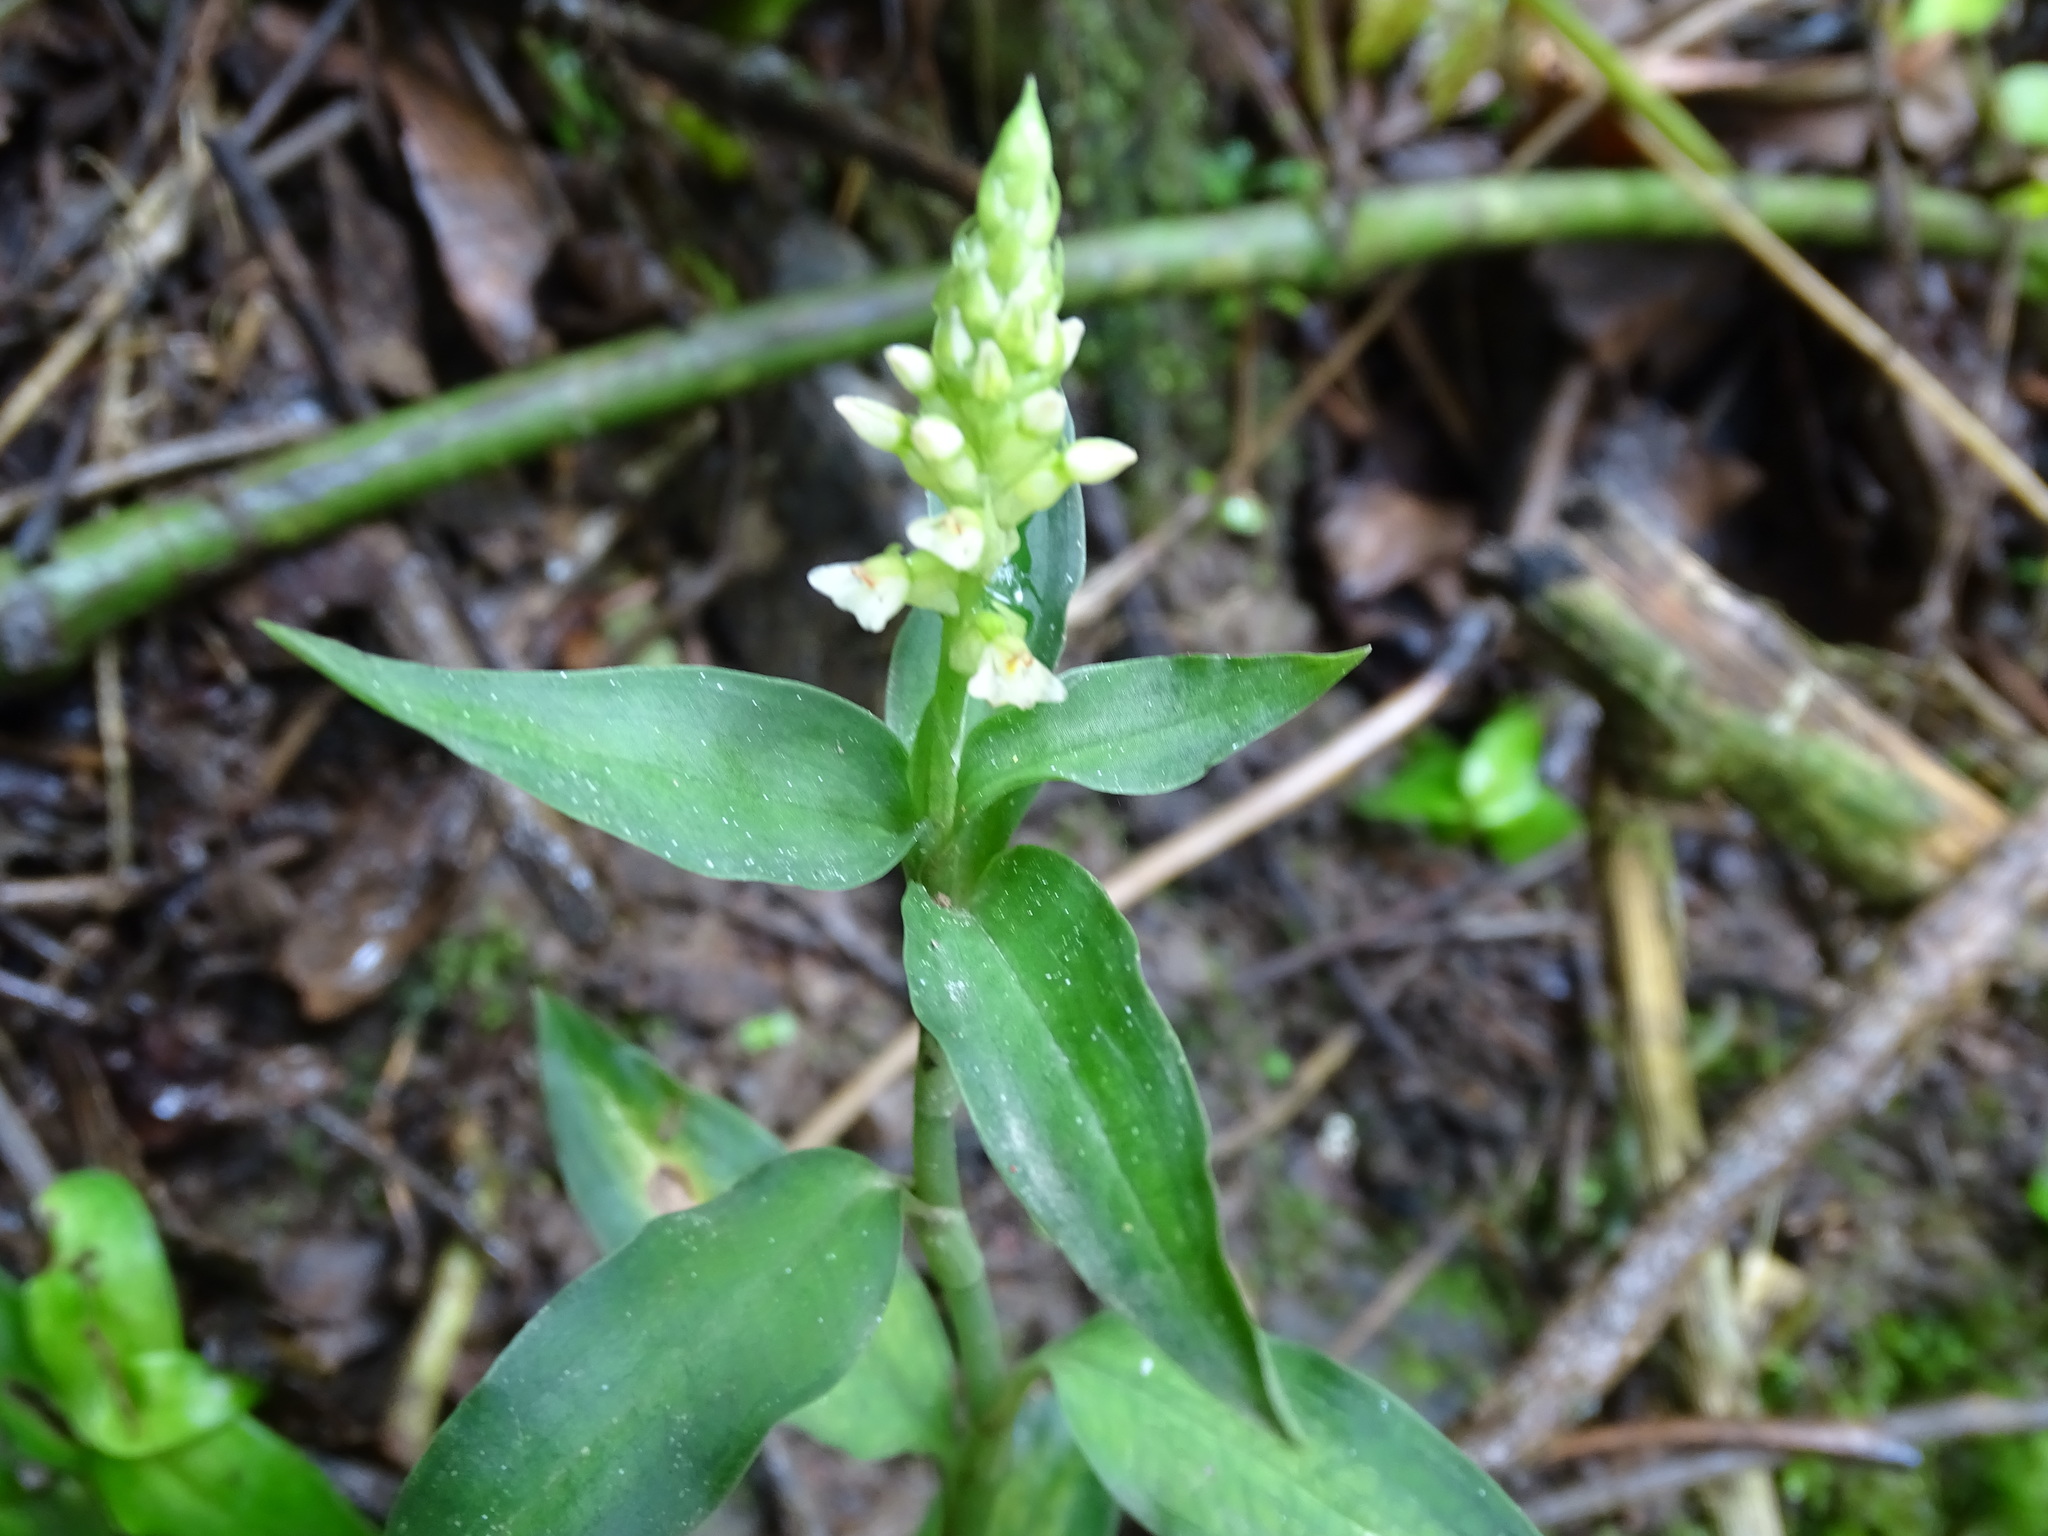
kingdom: Plantae
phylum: Tracheophyta
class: Liliopsida
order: Asparagales
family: Orchidaceae
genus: Aspidogyne
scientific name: Aspidogyne querceticola
